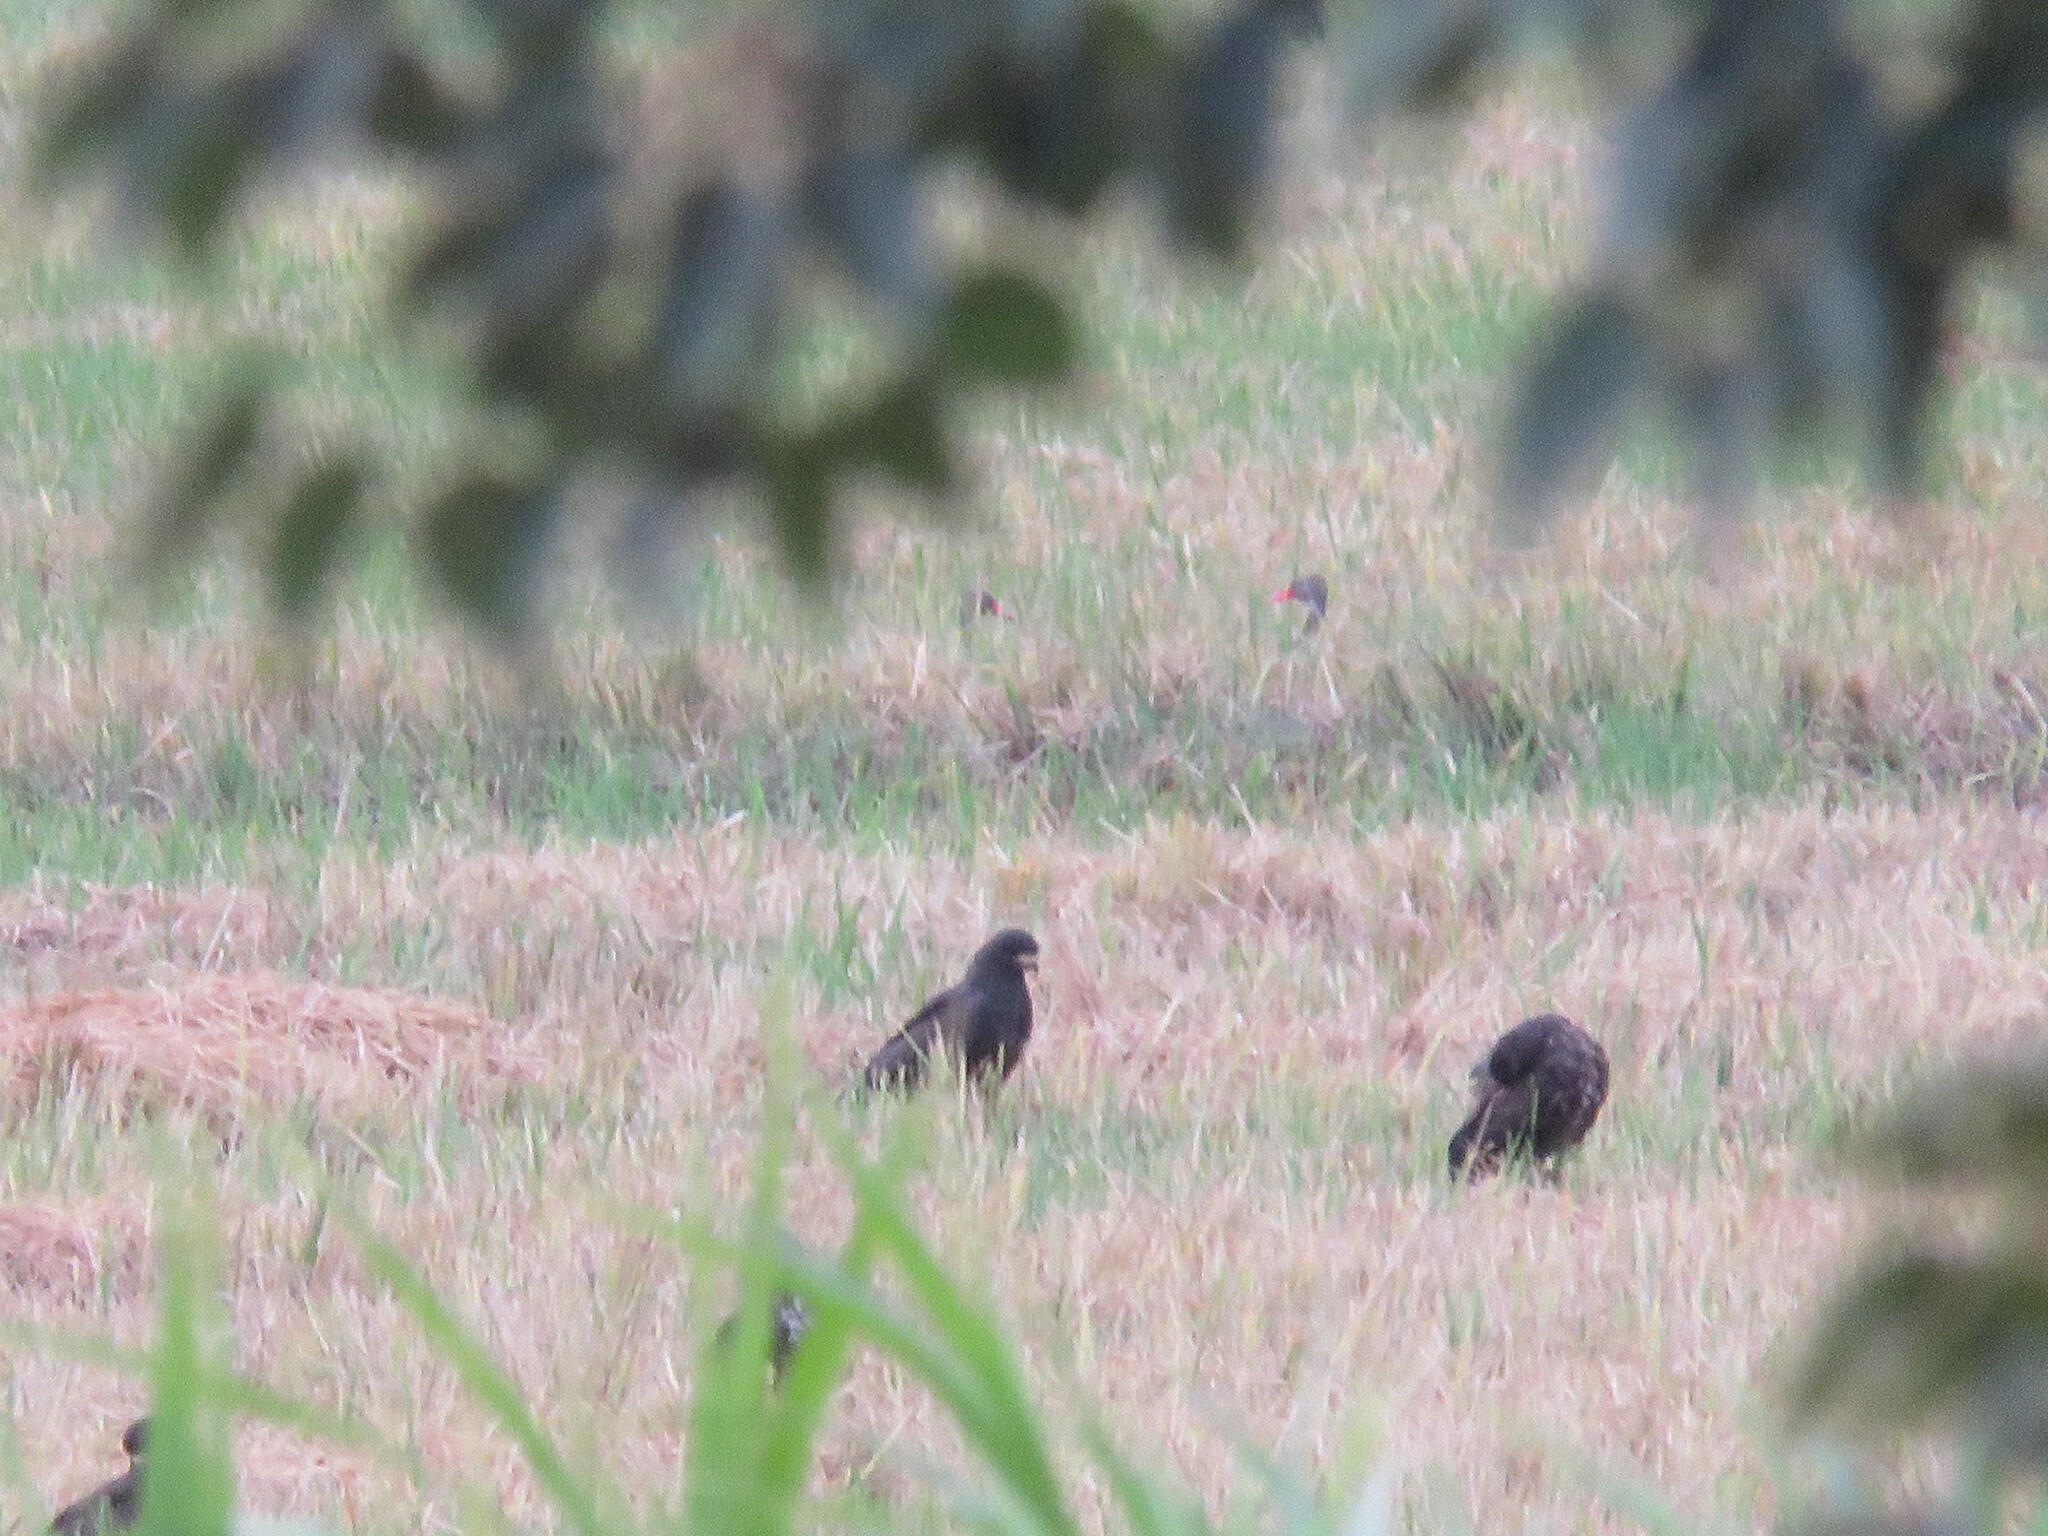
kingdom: Animalia
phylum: Chordata
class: Aves
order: Accipitriformes
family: Accipitridae
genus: Buteogallus
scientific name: Buteogallus urubitinga
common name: Great black hawk
